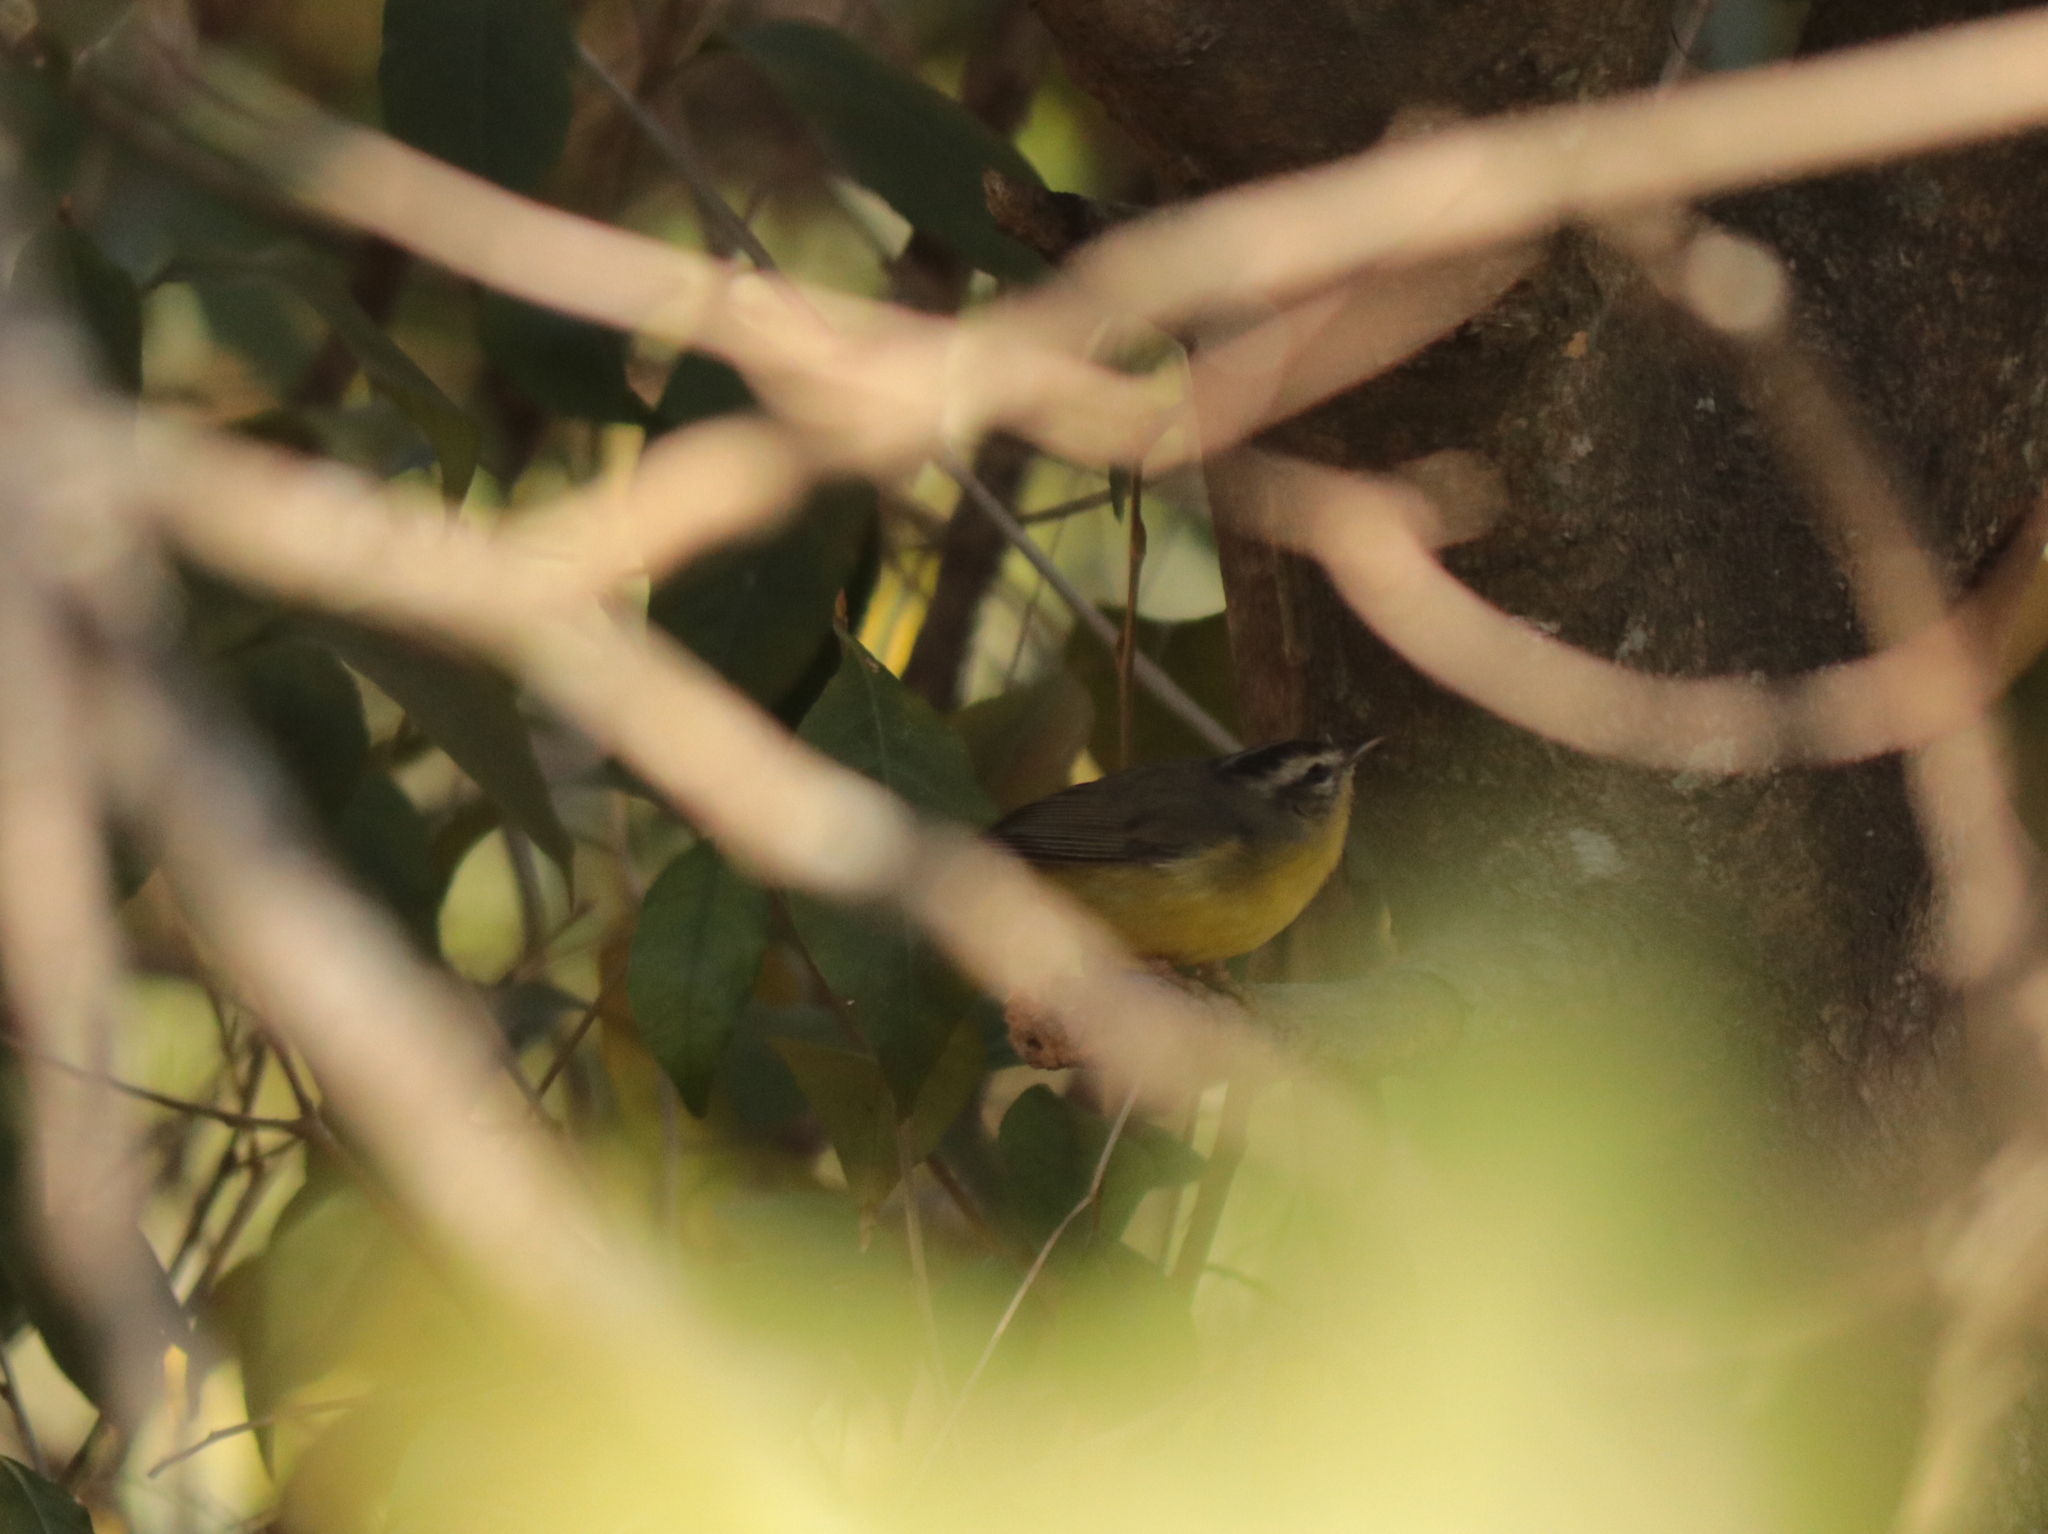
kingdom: Animalia
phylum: Chordata
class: Aves
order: Passeriformes
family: Parulidae
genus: Basileuterus
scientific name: Basileuterus culicivorus
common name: Golden-crowned warbler
